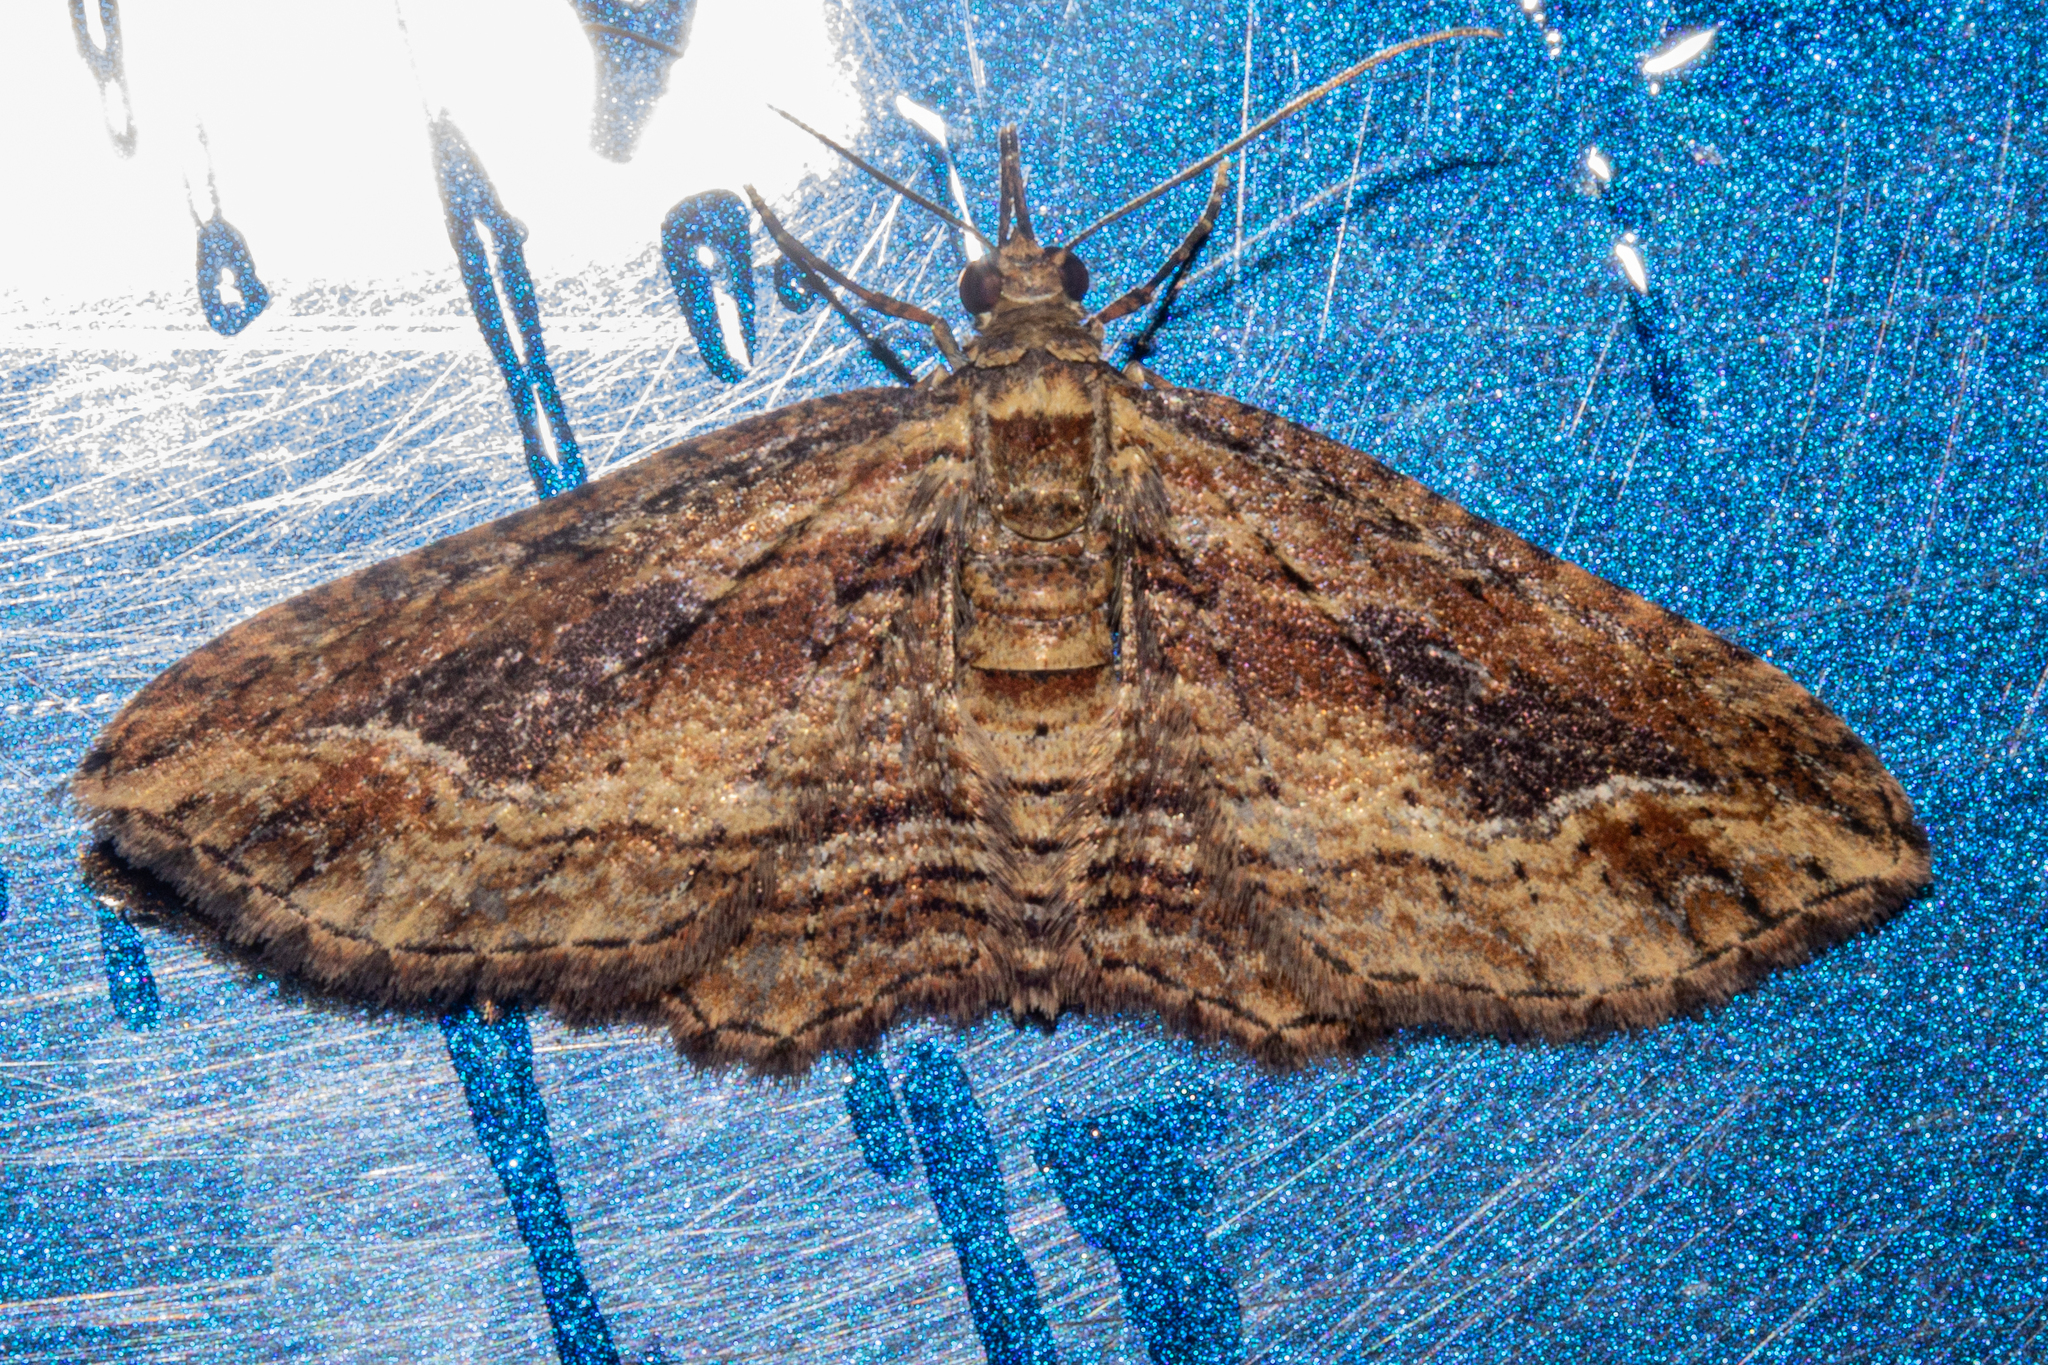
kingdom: Animalia
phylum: Arthropoda
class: Insecta
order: Lepidoptera
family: Geometridae
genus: Chloroclystis
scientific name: Chloroclystis filata
